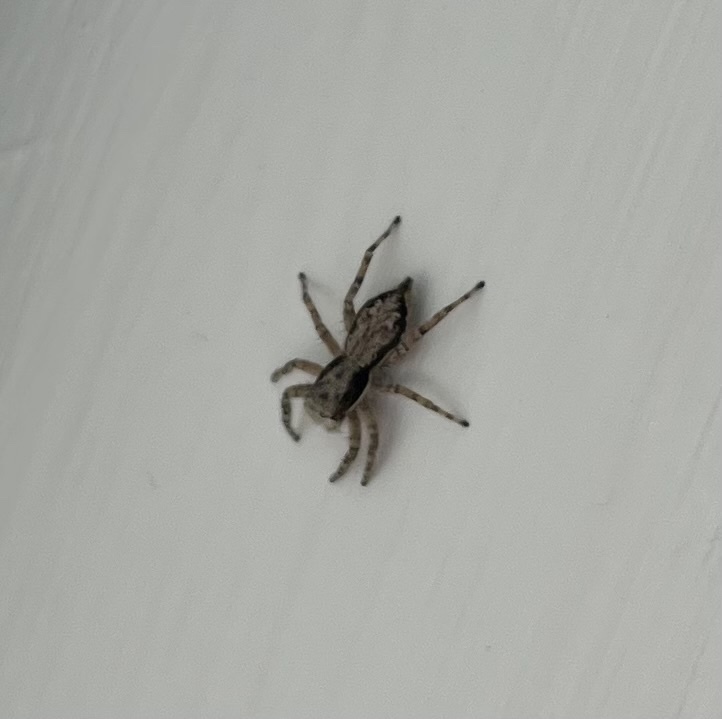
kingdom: Animalia
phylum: Arthropoda
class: Arachnida
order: Araneae
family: Salticidae
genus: Menemerus
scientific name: Menemerus bivittatus
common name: Gray wall jumper
